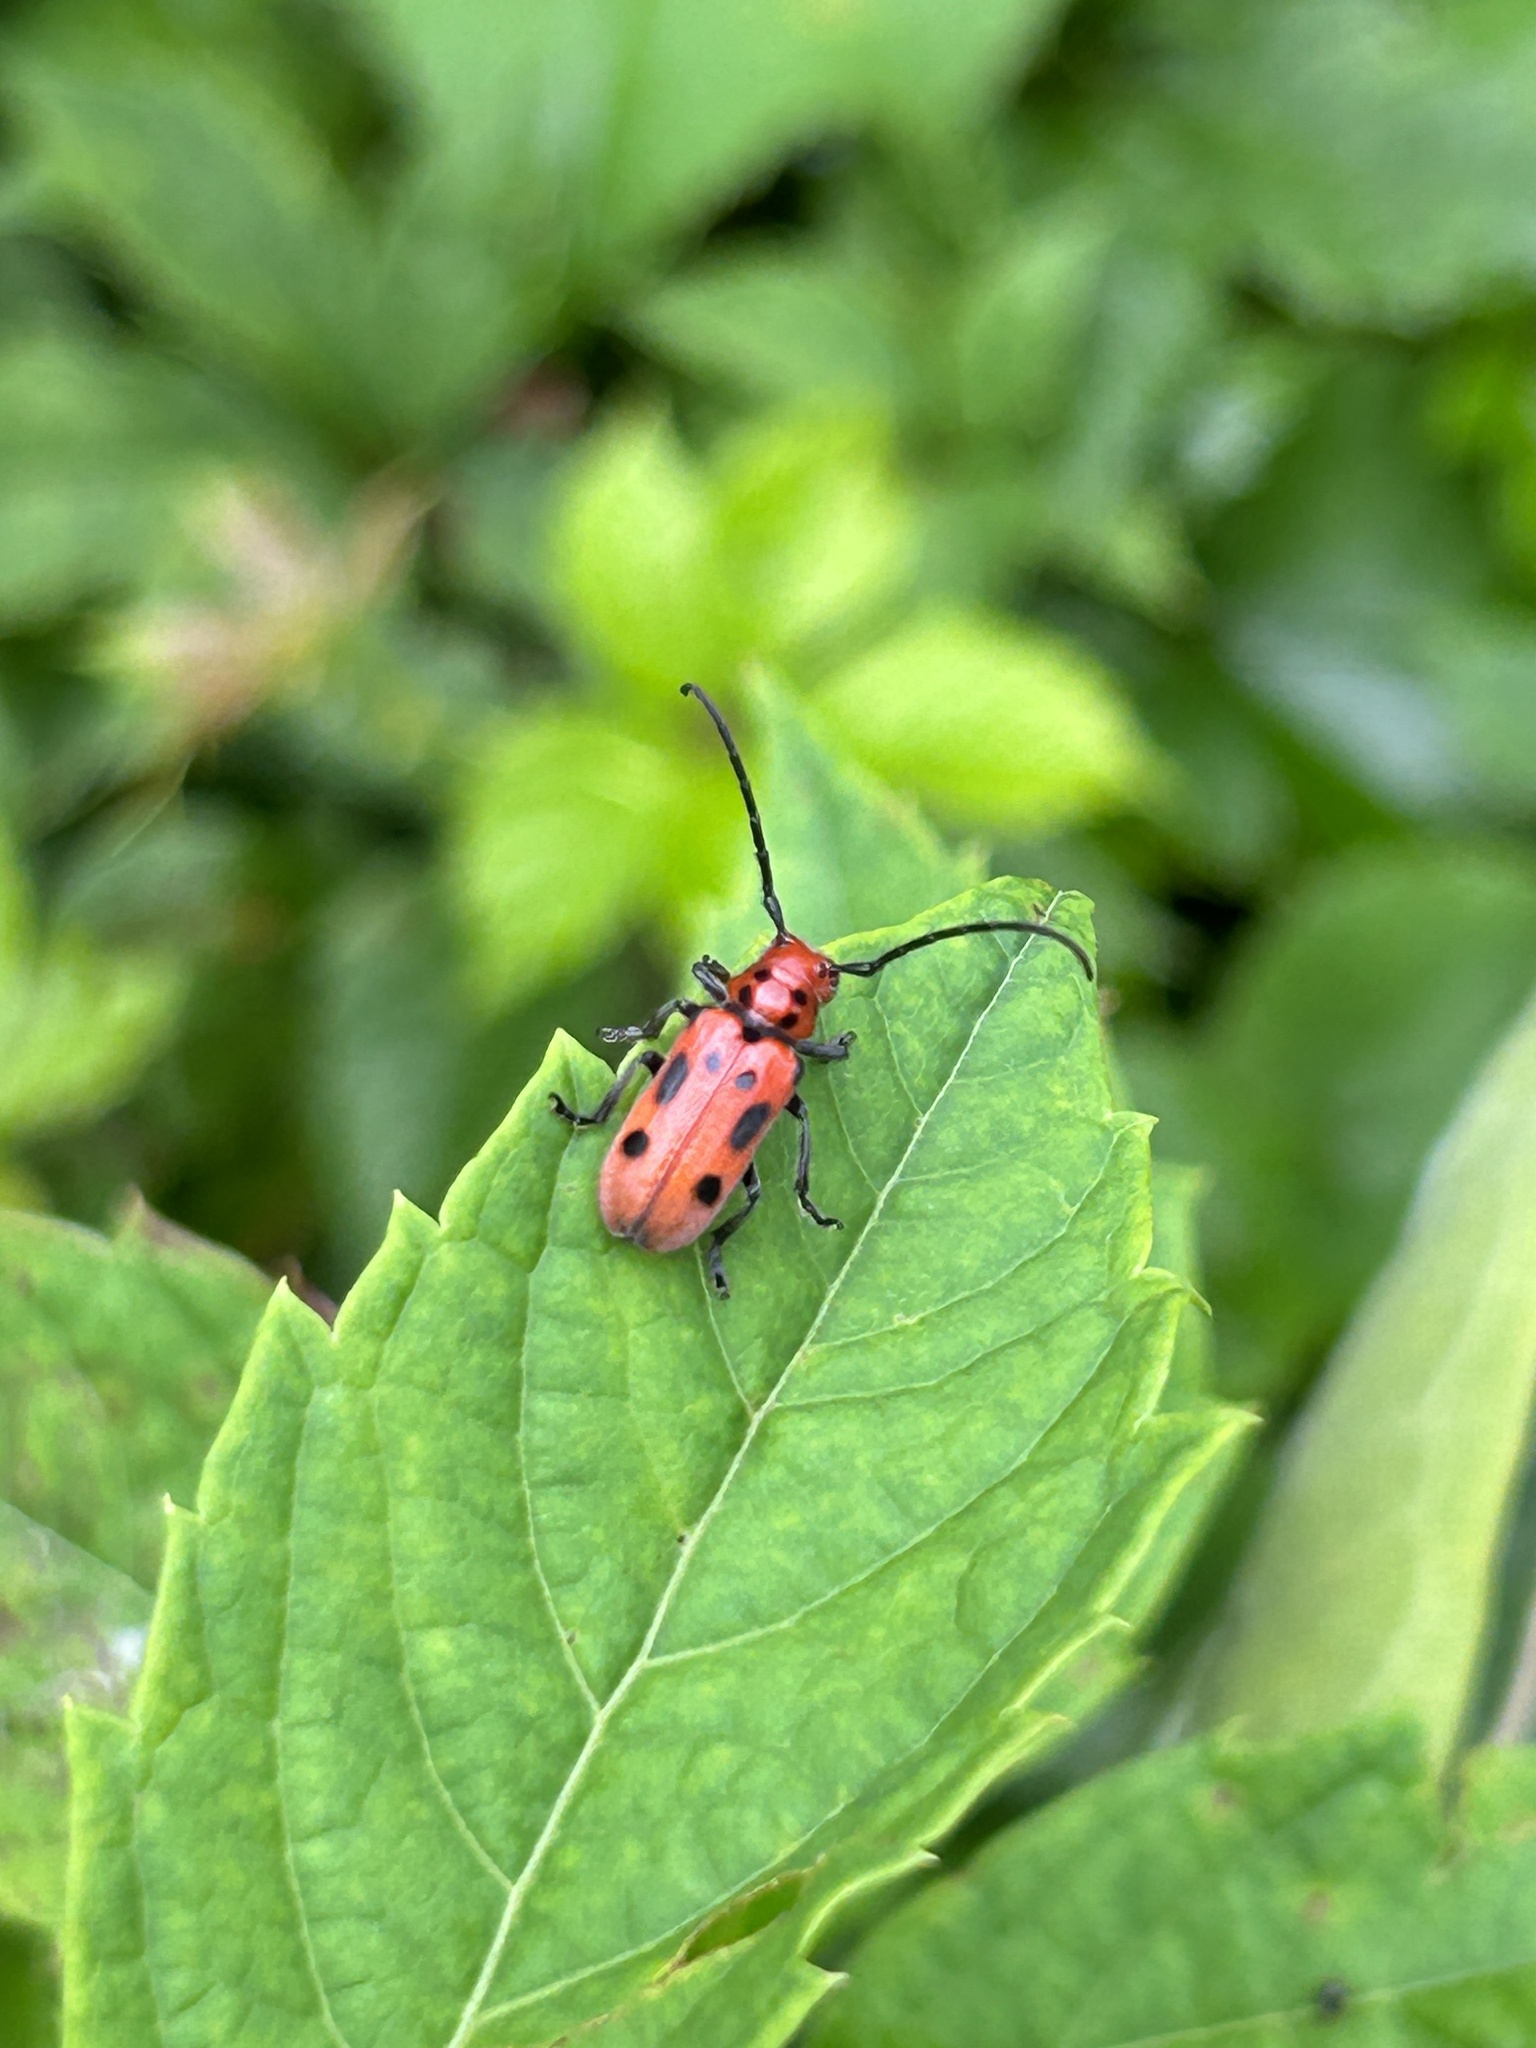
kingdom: Animalia
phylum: Arthropoda
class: Insecta
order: Coleoptera
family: Cerambycidae
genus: Tetraopes
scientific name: Tetraopes tetrophthalmus
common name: Red milkweed beetle
